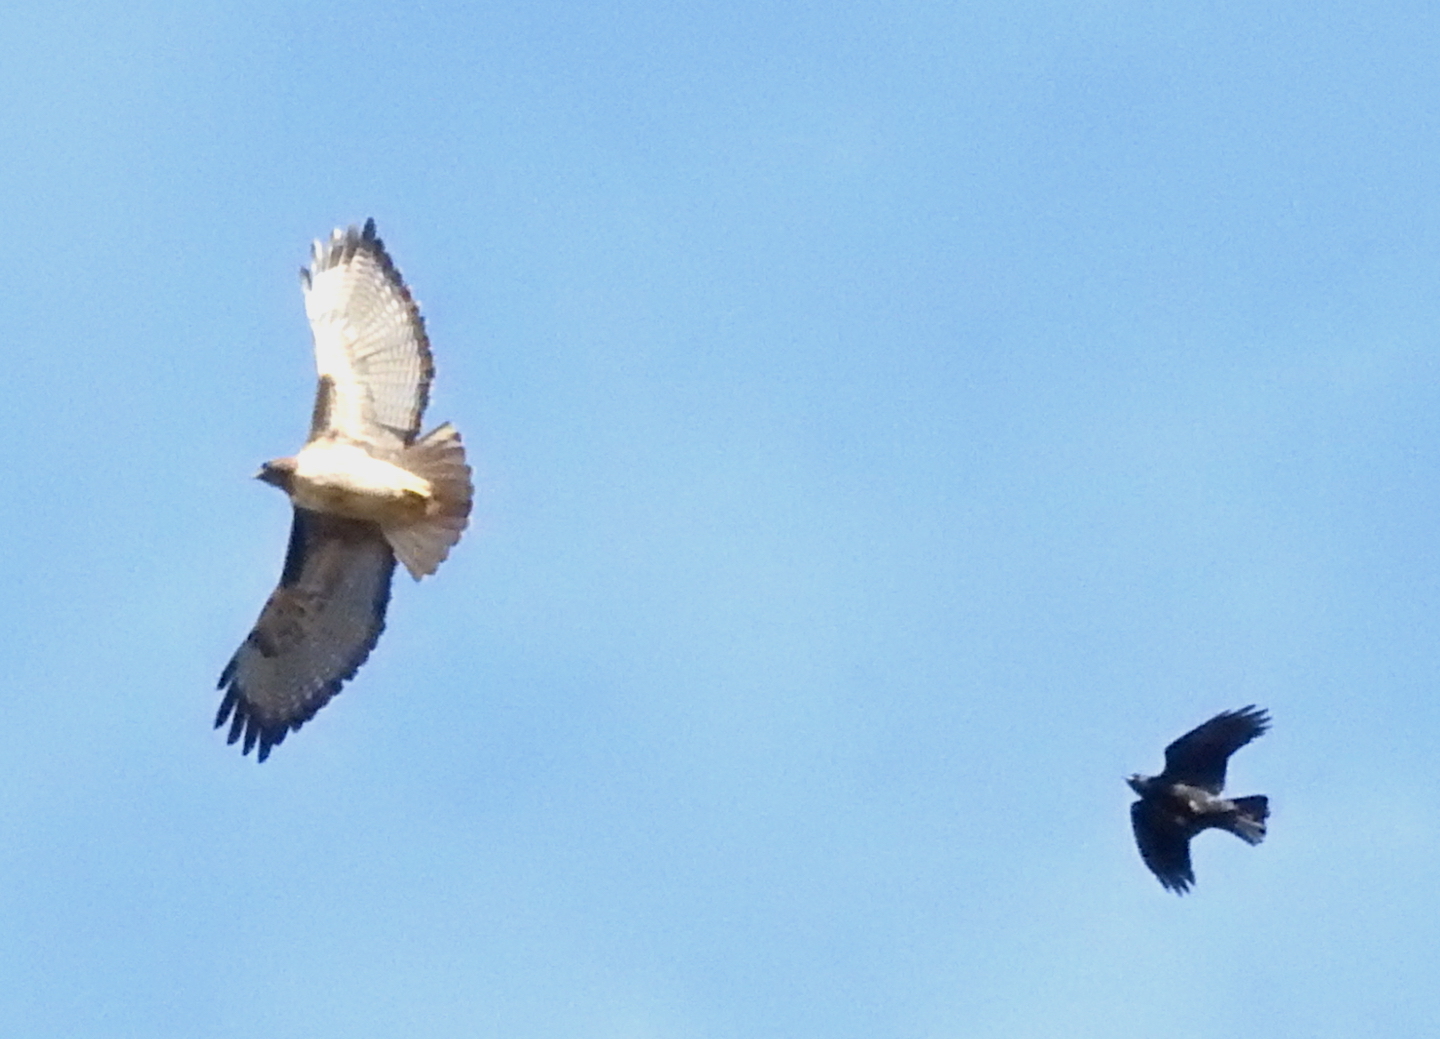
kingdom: Animalia
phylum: Chordata
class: Aves
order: Accipitriformes
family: Accipitridae
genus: Buteo
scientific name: Buteo jamaicensis
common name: Red-tailed hawk
